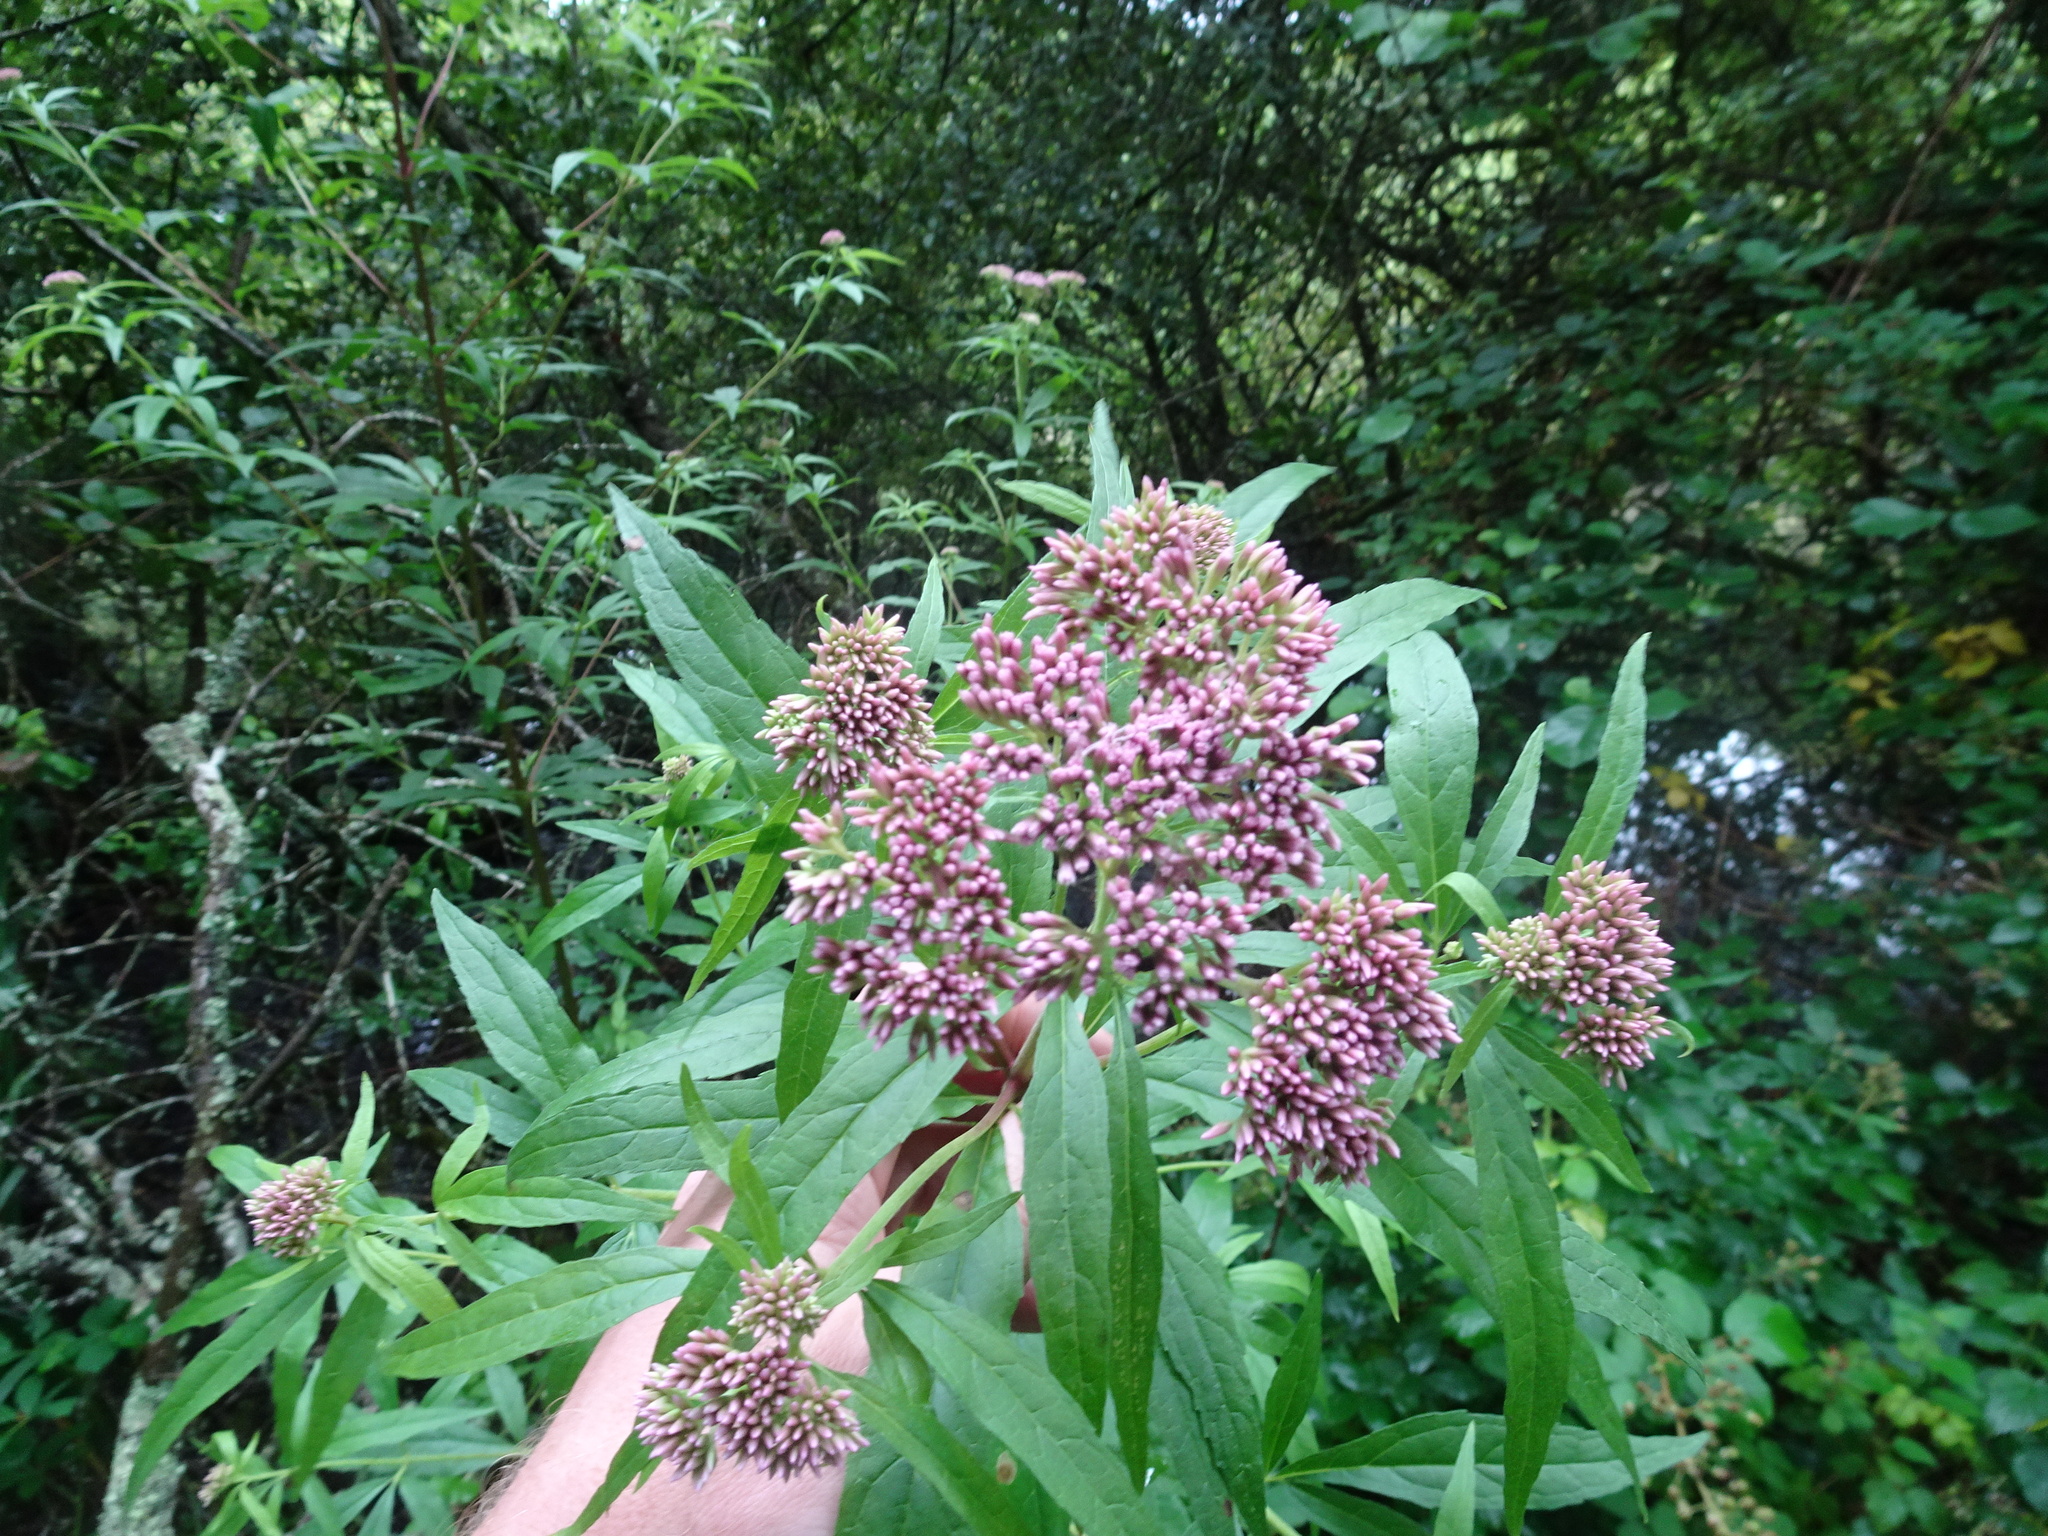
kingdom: Plantae
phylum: Tracheophyta
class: Magnoliopsida
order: Asterales
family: Asteraceae
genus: Eupatorium
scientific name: Eupatorium cannabinum
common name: Hemp-agrimony
